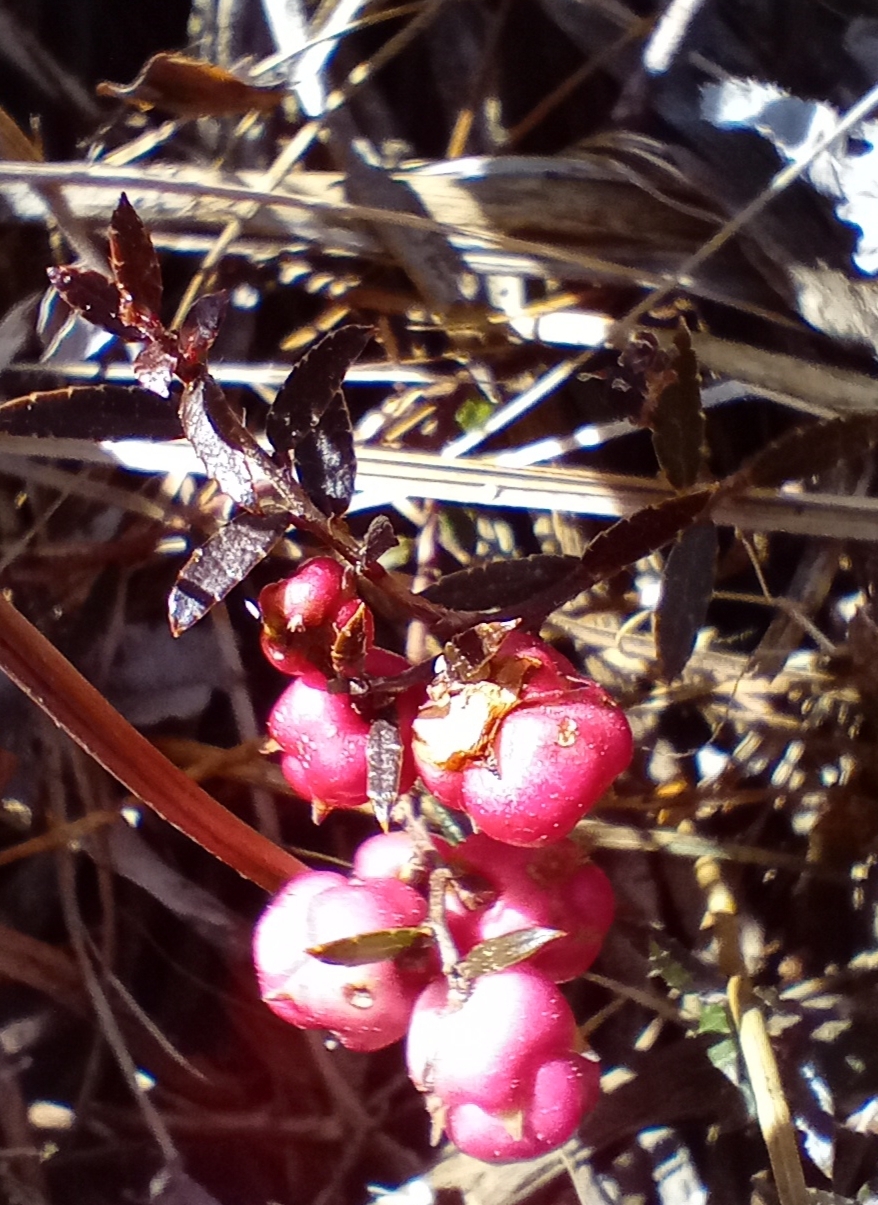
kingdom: Plantae
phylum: Tracheophyta
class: Magnoliopsida
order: Ericales
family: Ericaceae
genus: Gaultheria
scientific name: Gaultheria macrostigma
